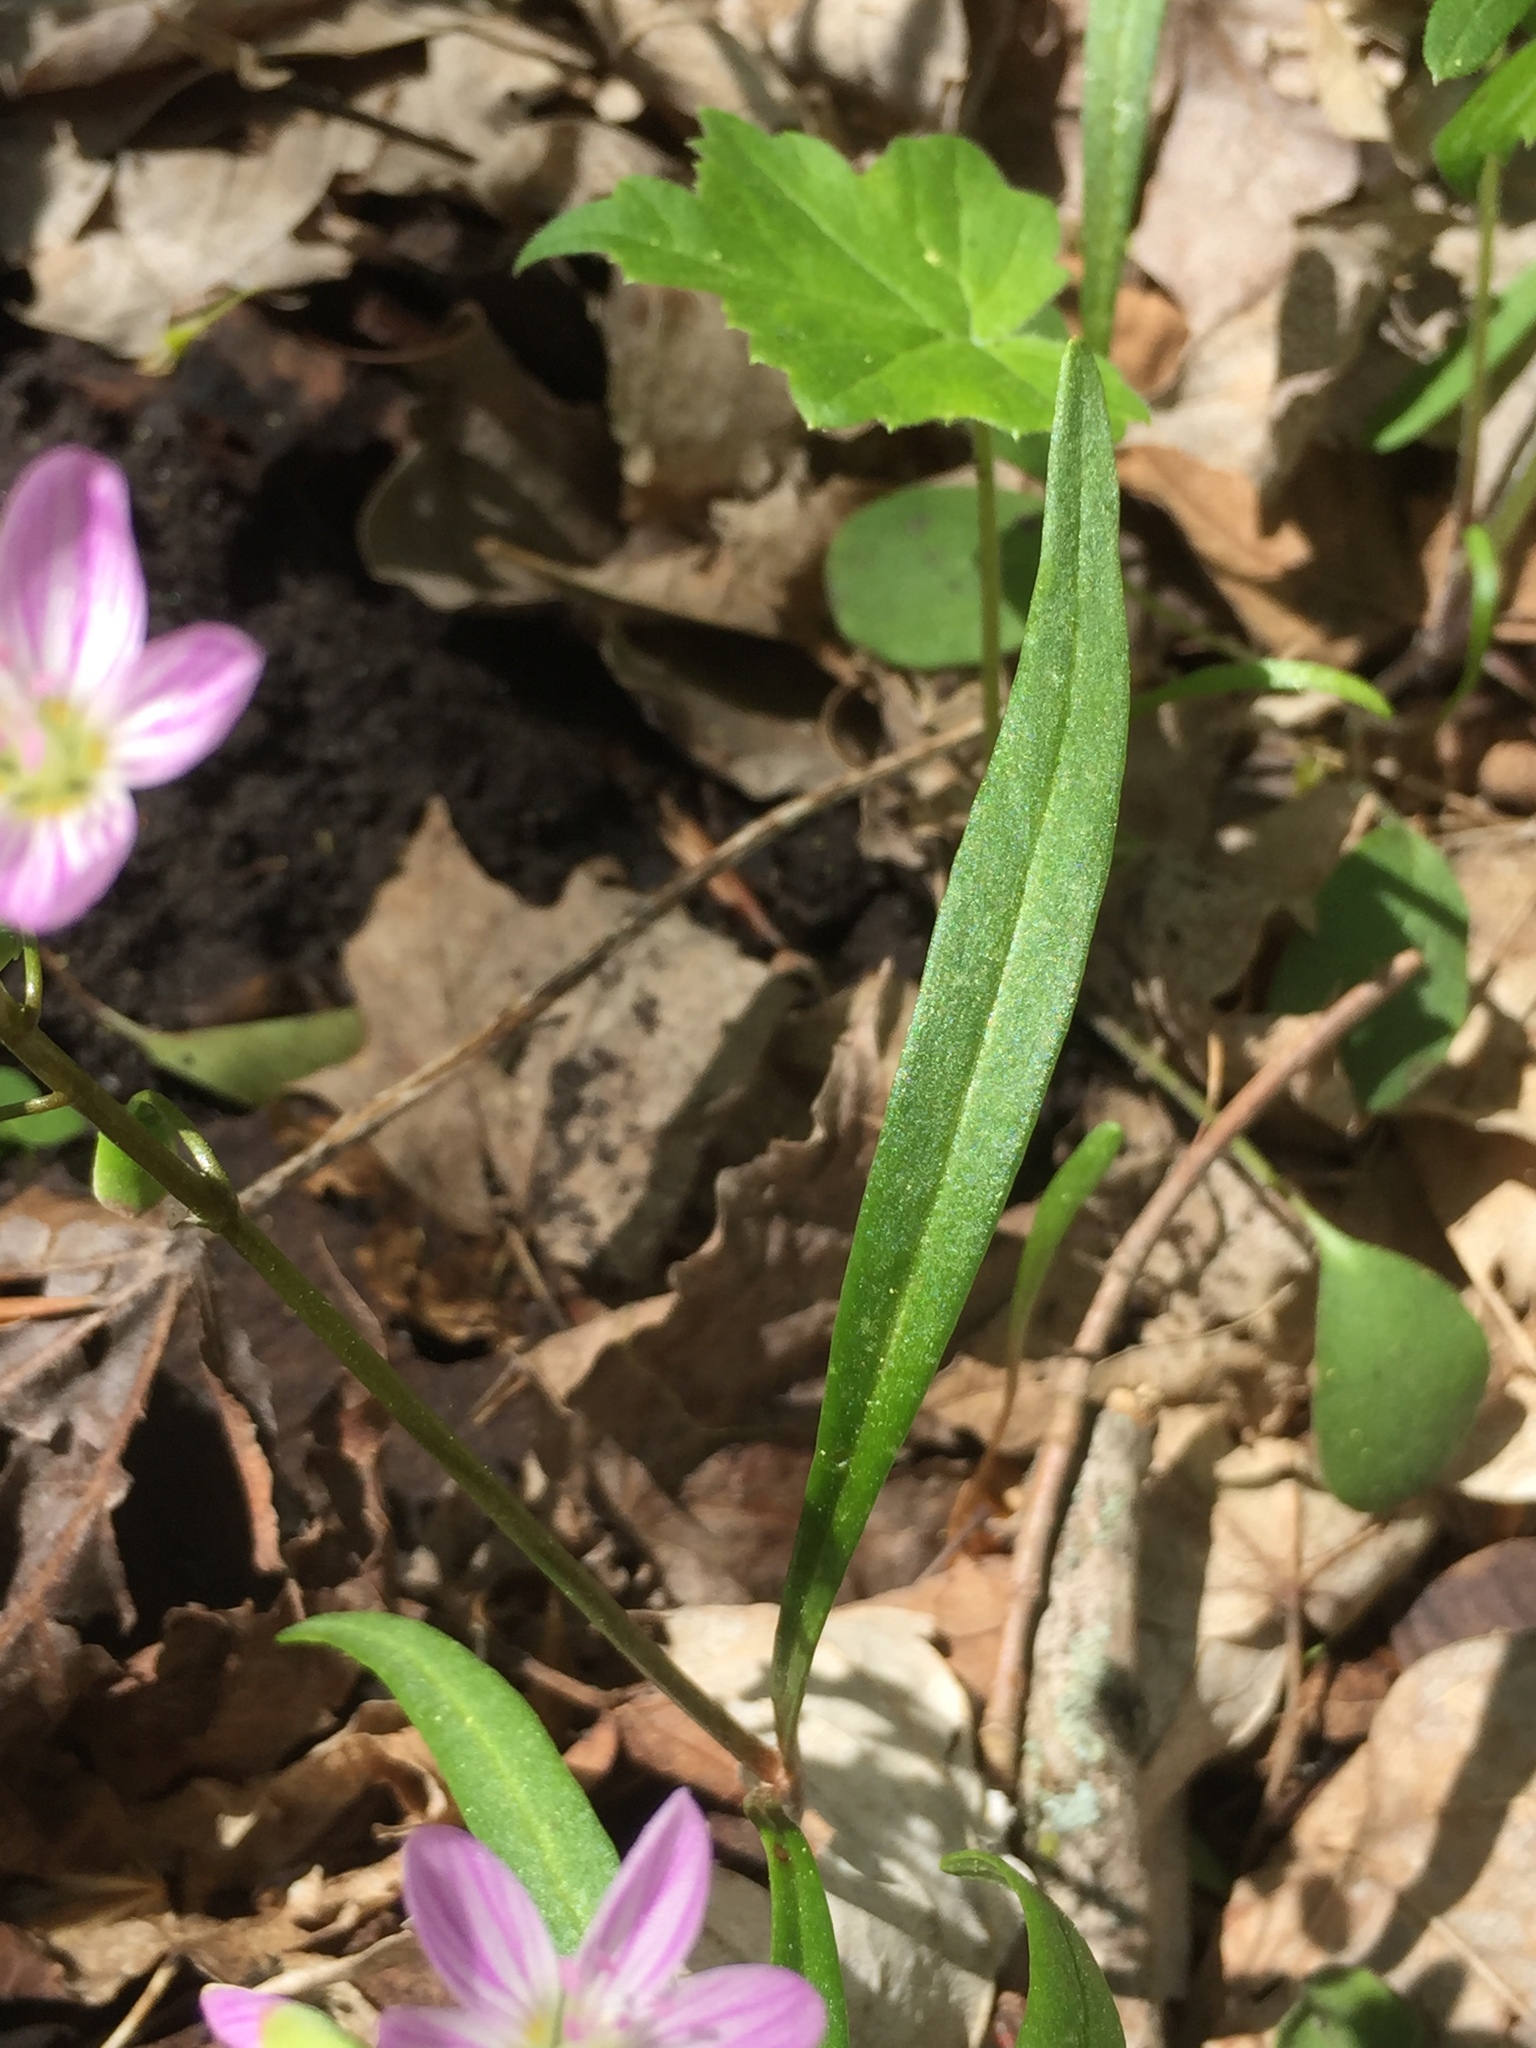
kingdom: Plantae
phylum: Tracheophyta
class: Magnoliopsida
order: Caryophyllales
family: Montiaceae
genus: Claytonia
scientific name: Claytonia virginica
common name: Virginia springbeauty
